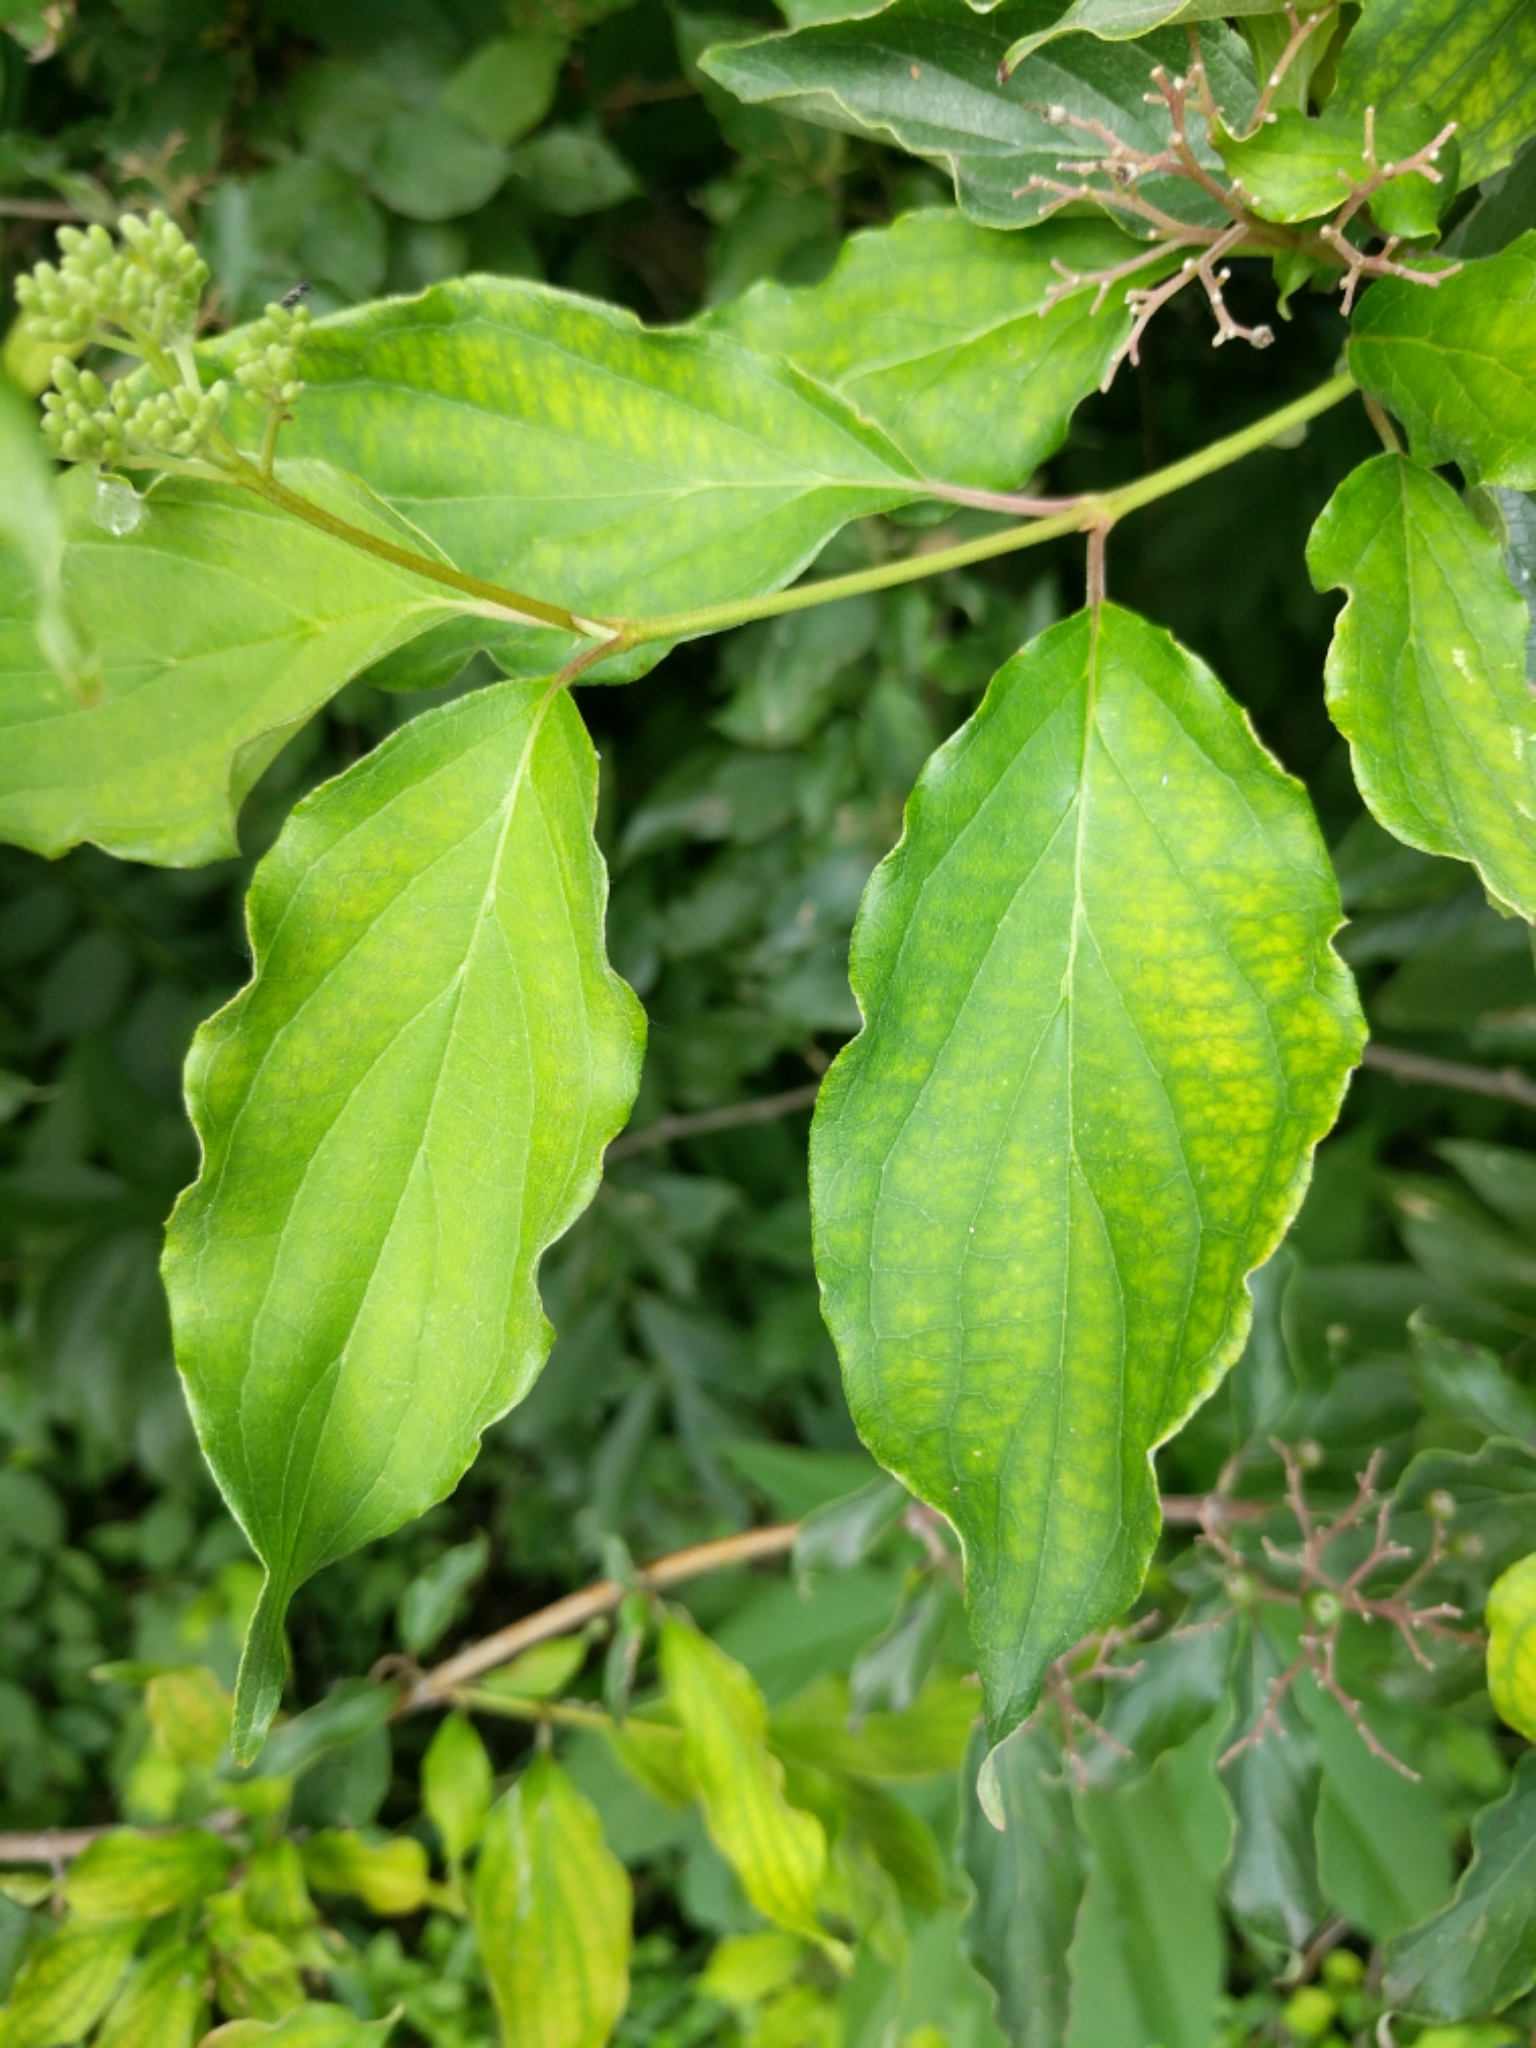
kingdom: Plantae
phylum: Tracheophyta
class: Magnoliopsida
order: Cornales
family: Cornaceae
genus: Cornus
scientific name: Cornus drummondii
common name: Rough-leaf dogwood
